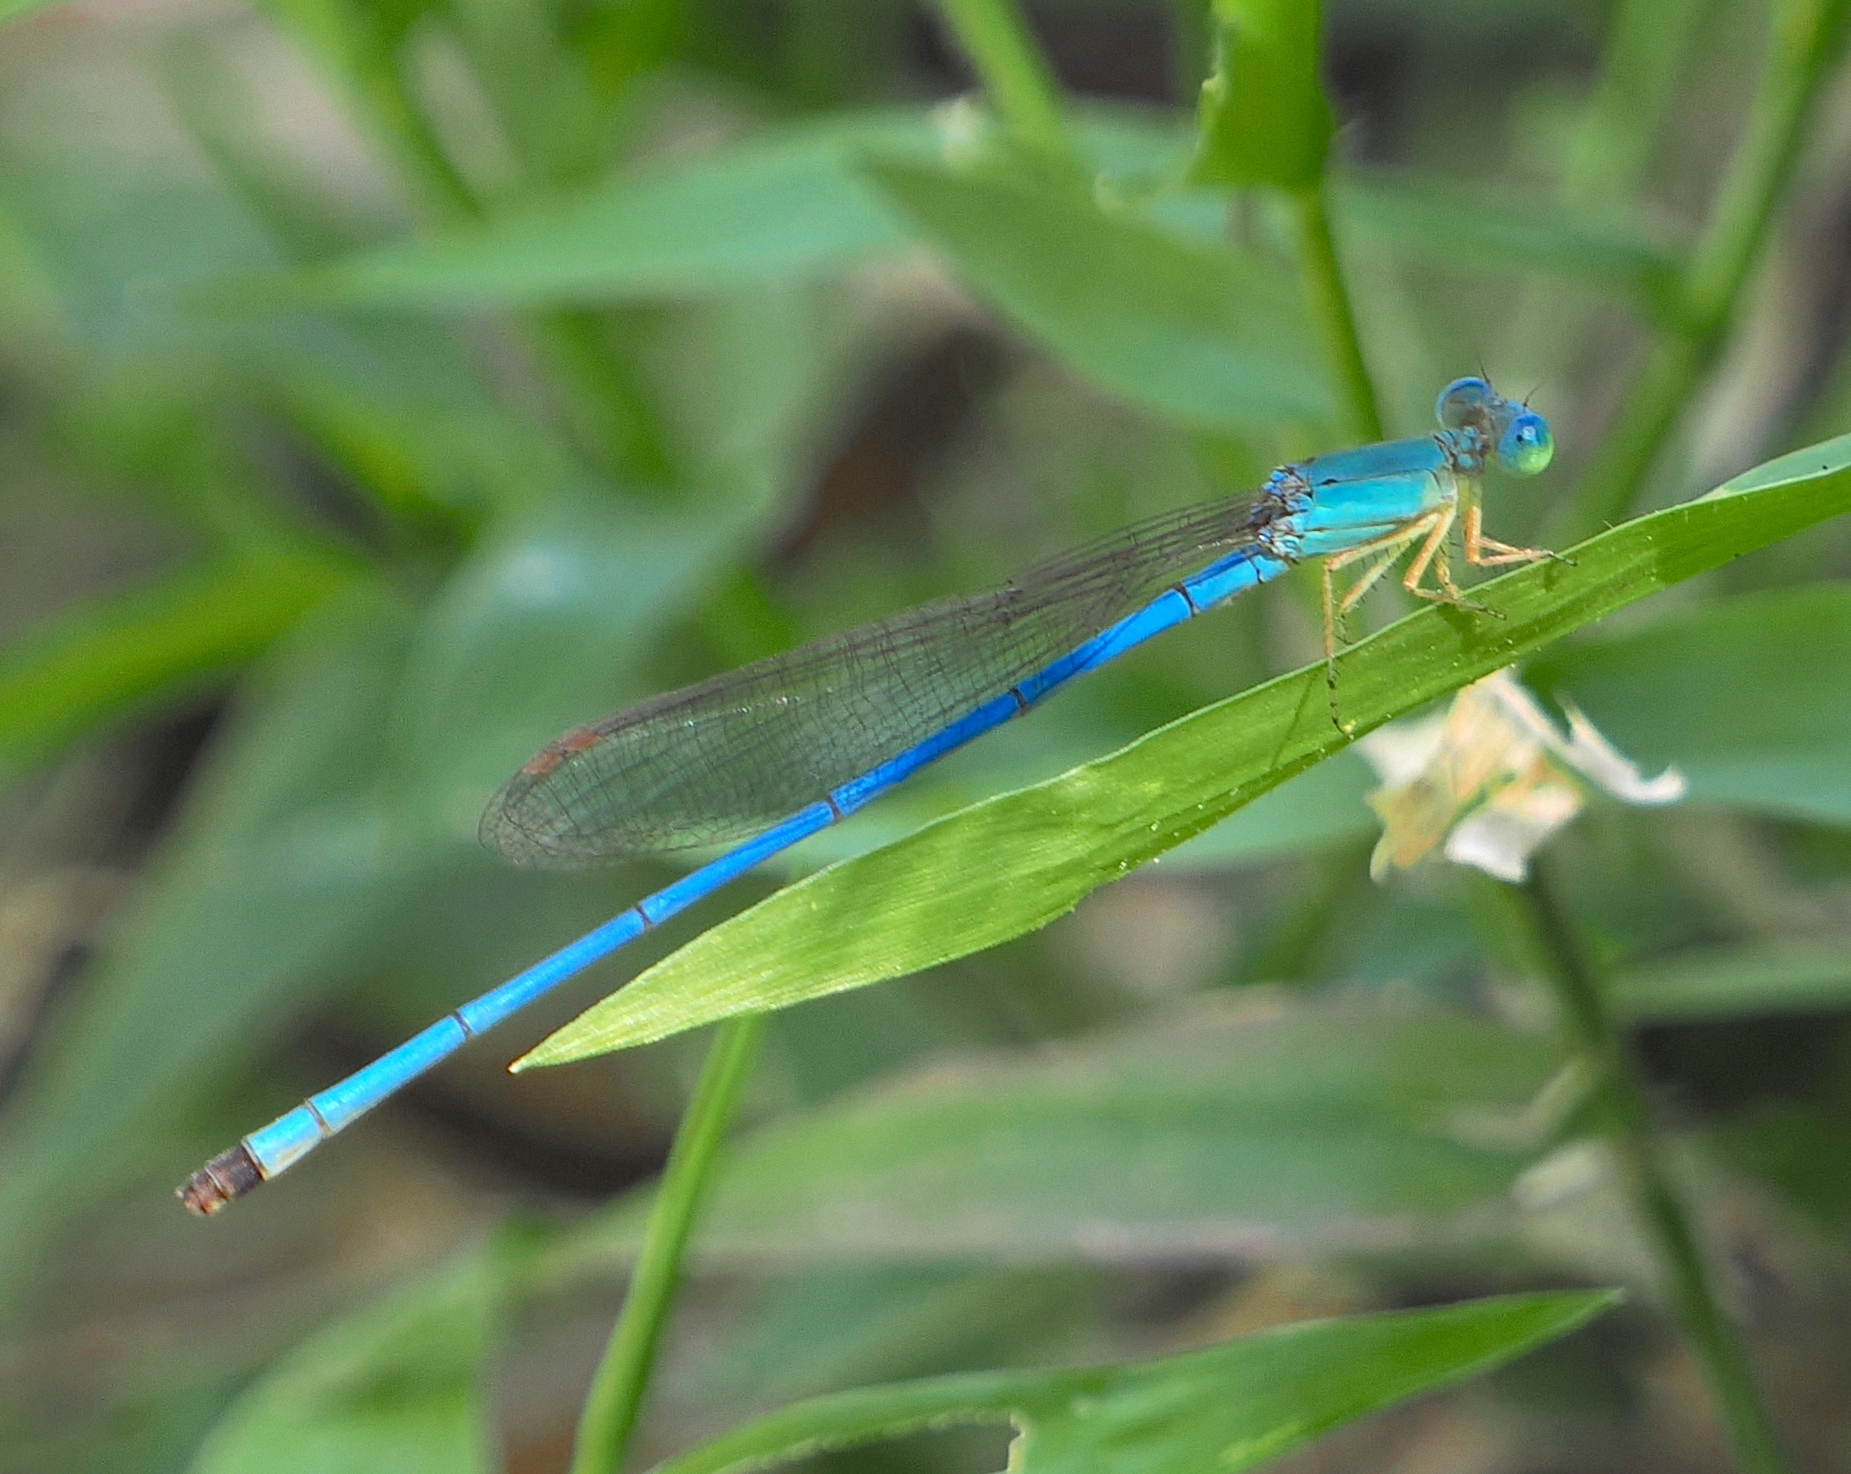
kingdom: Animalia
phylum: Arthropoda
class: Insecta
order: Odonata
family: Coenagrionidae
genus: Ceriagrion
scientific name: Ceriagrion azureum
